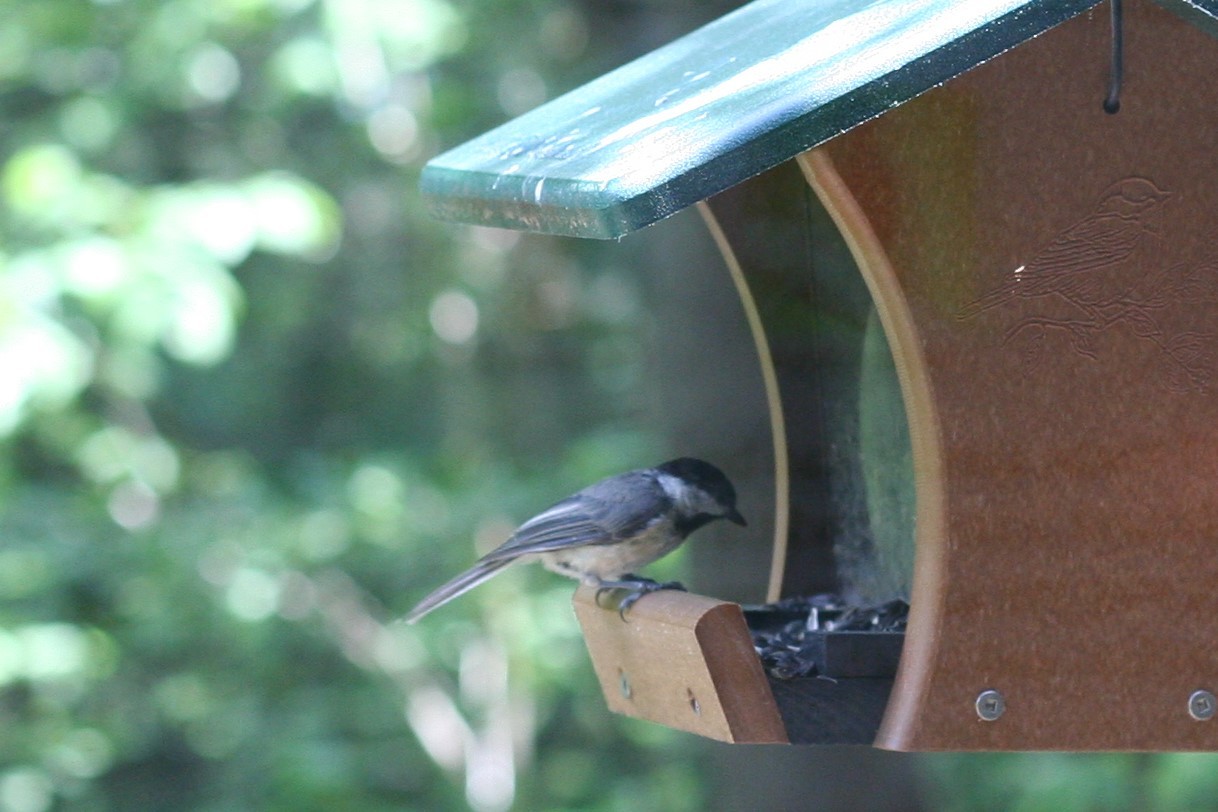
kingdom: Animalia
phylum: Chordata
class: Aves
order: Passeriformes
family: Paridae
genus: Poecile
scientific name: Poecile carolinensis
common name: Carolina chickadee
